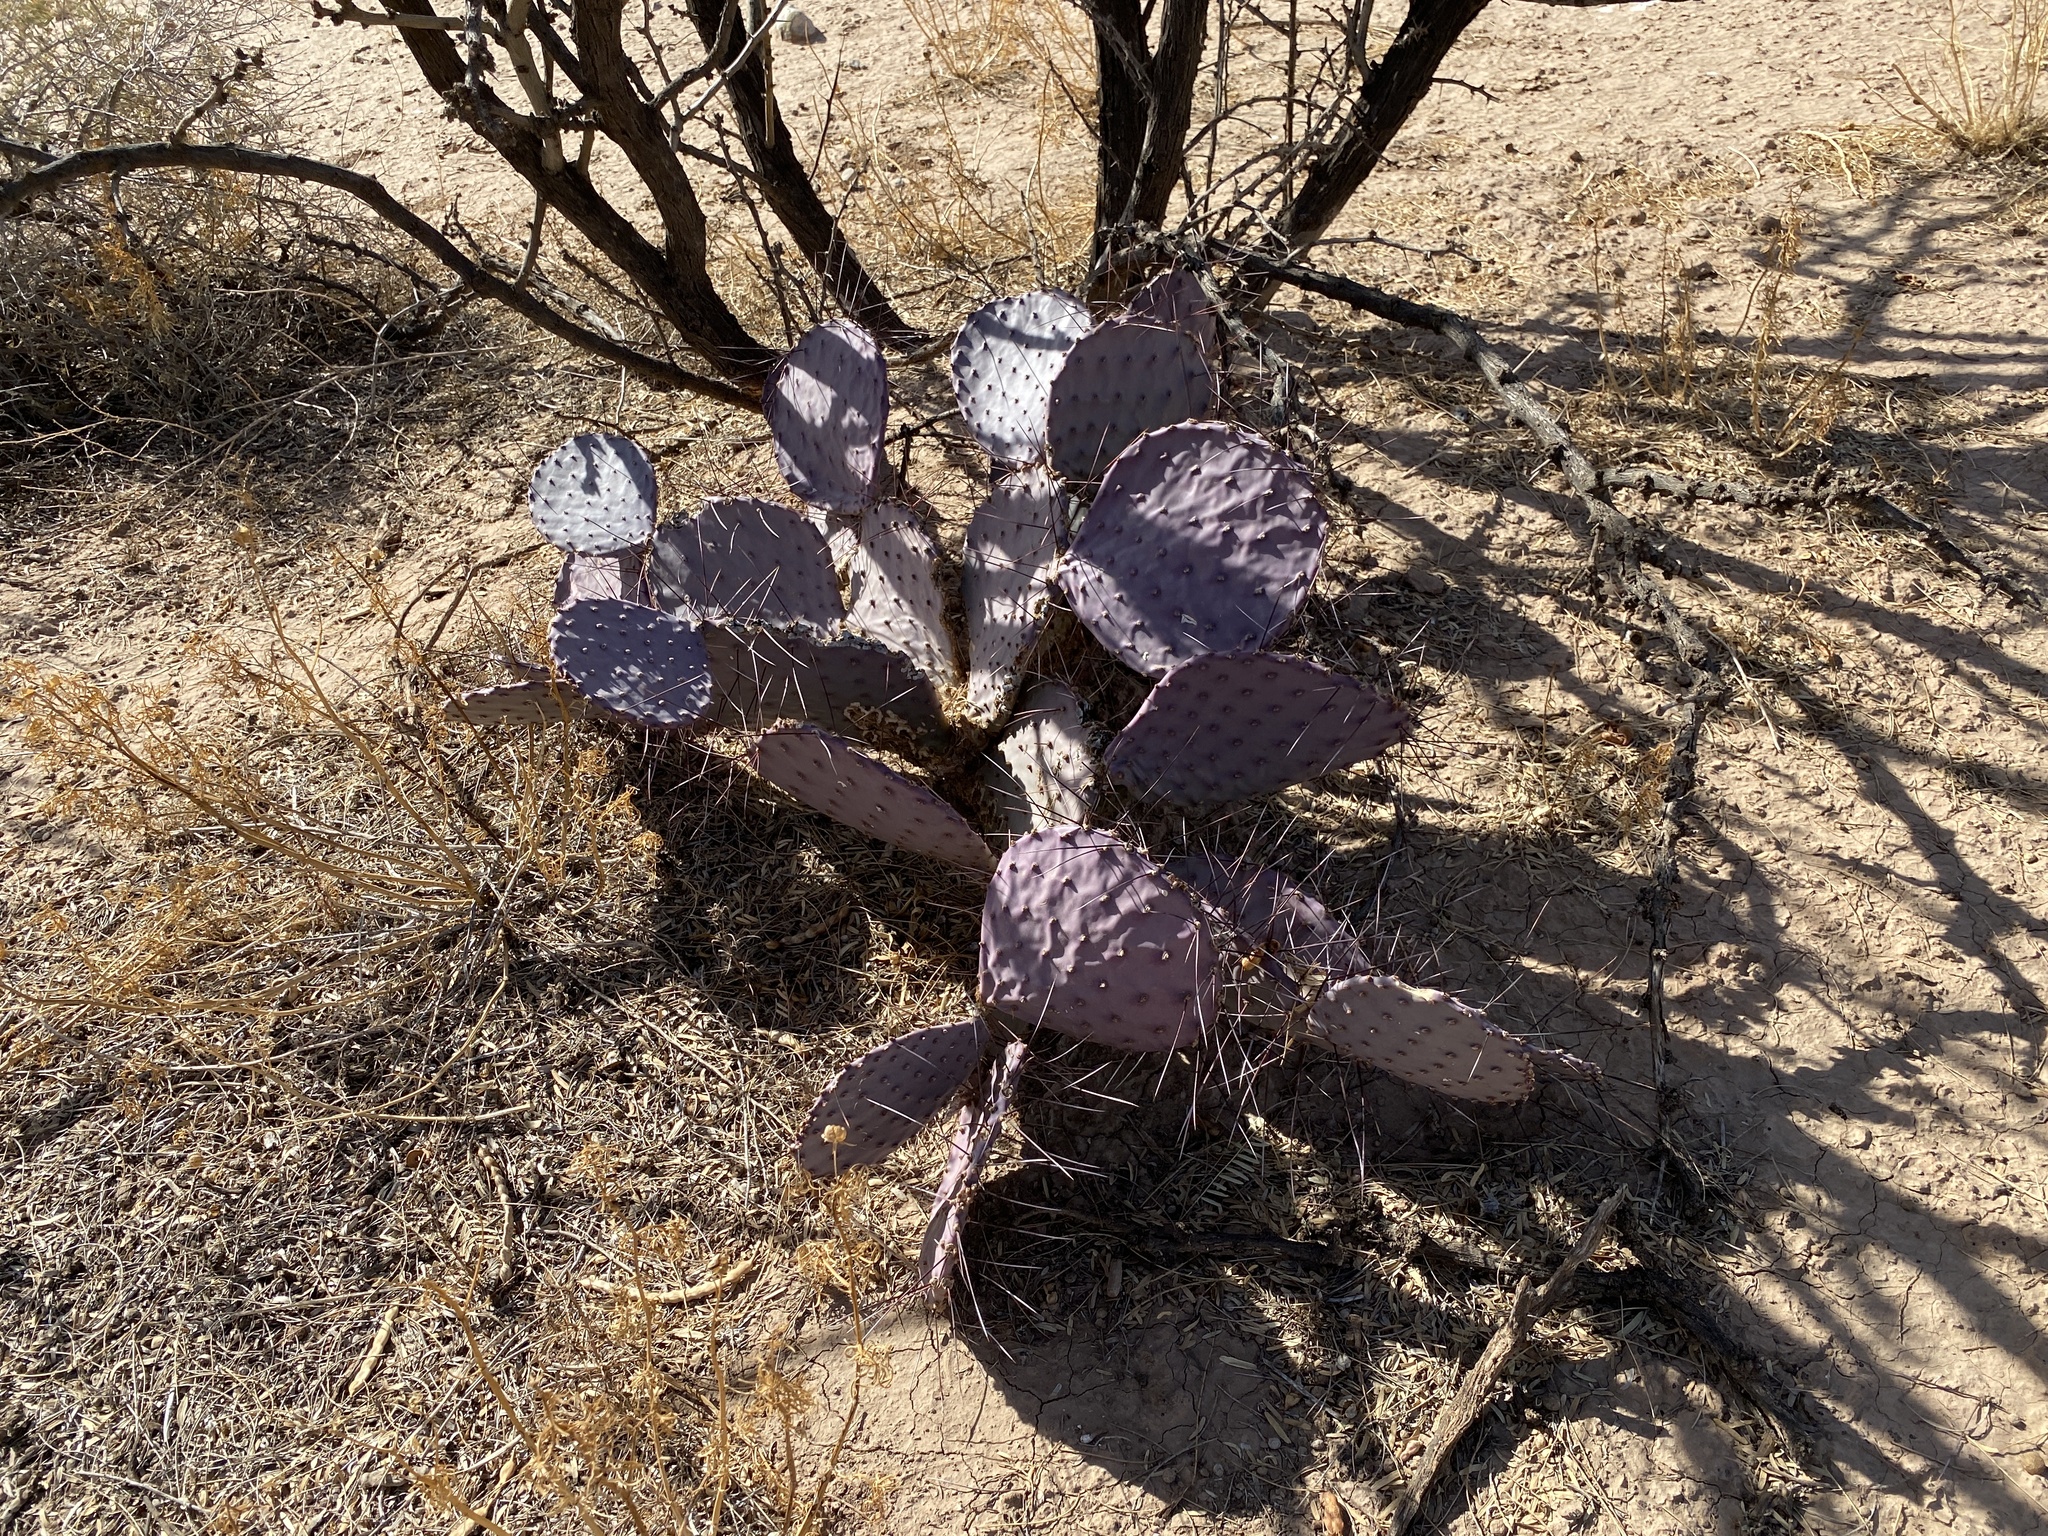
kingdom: Plantae
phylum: Tracheophyta
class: Magnoliopsida
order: Caryophyllales
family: Cactaceae
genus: Opuntia
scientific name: Opuntia macrocentra
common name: Purple prickly-pear
